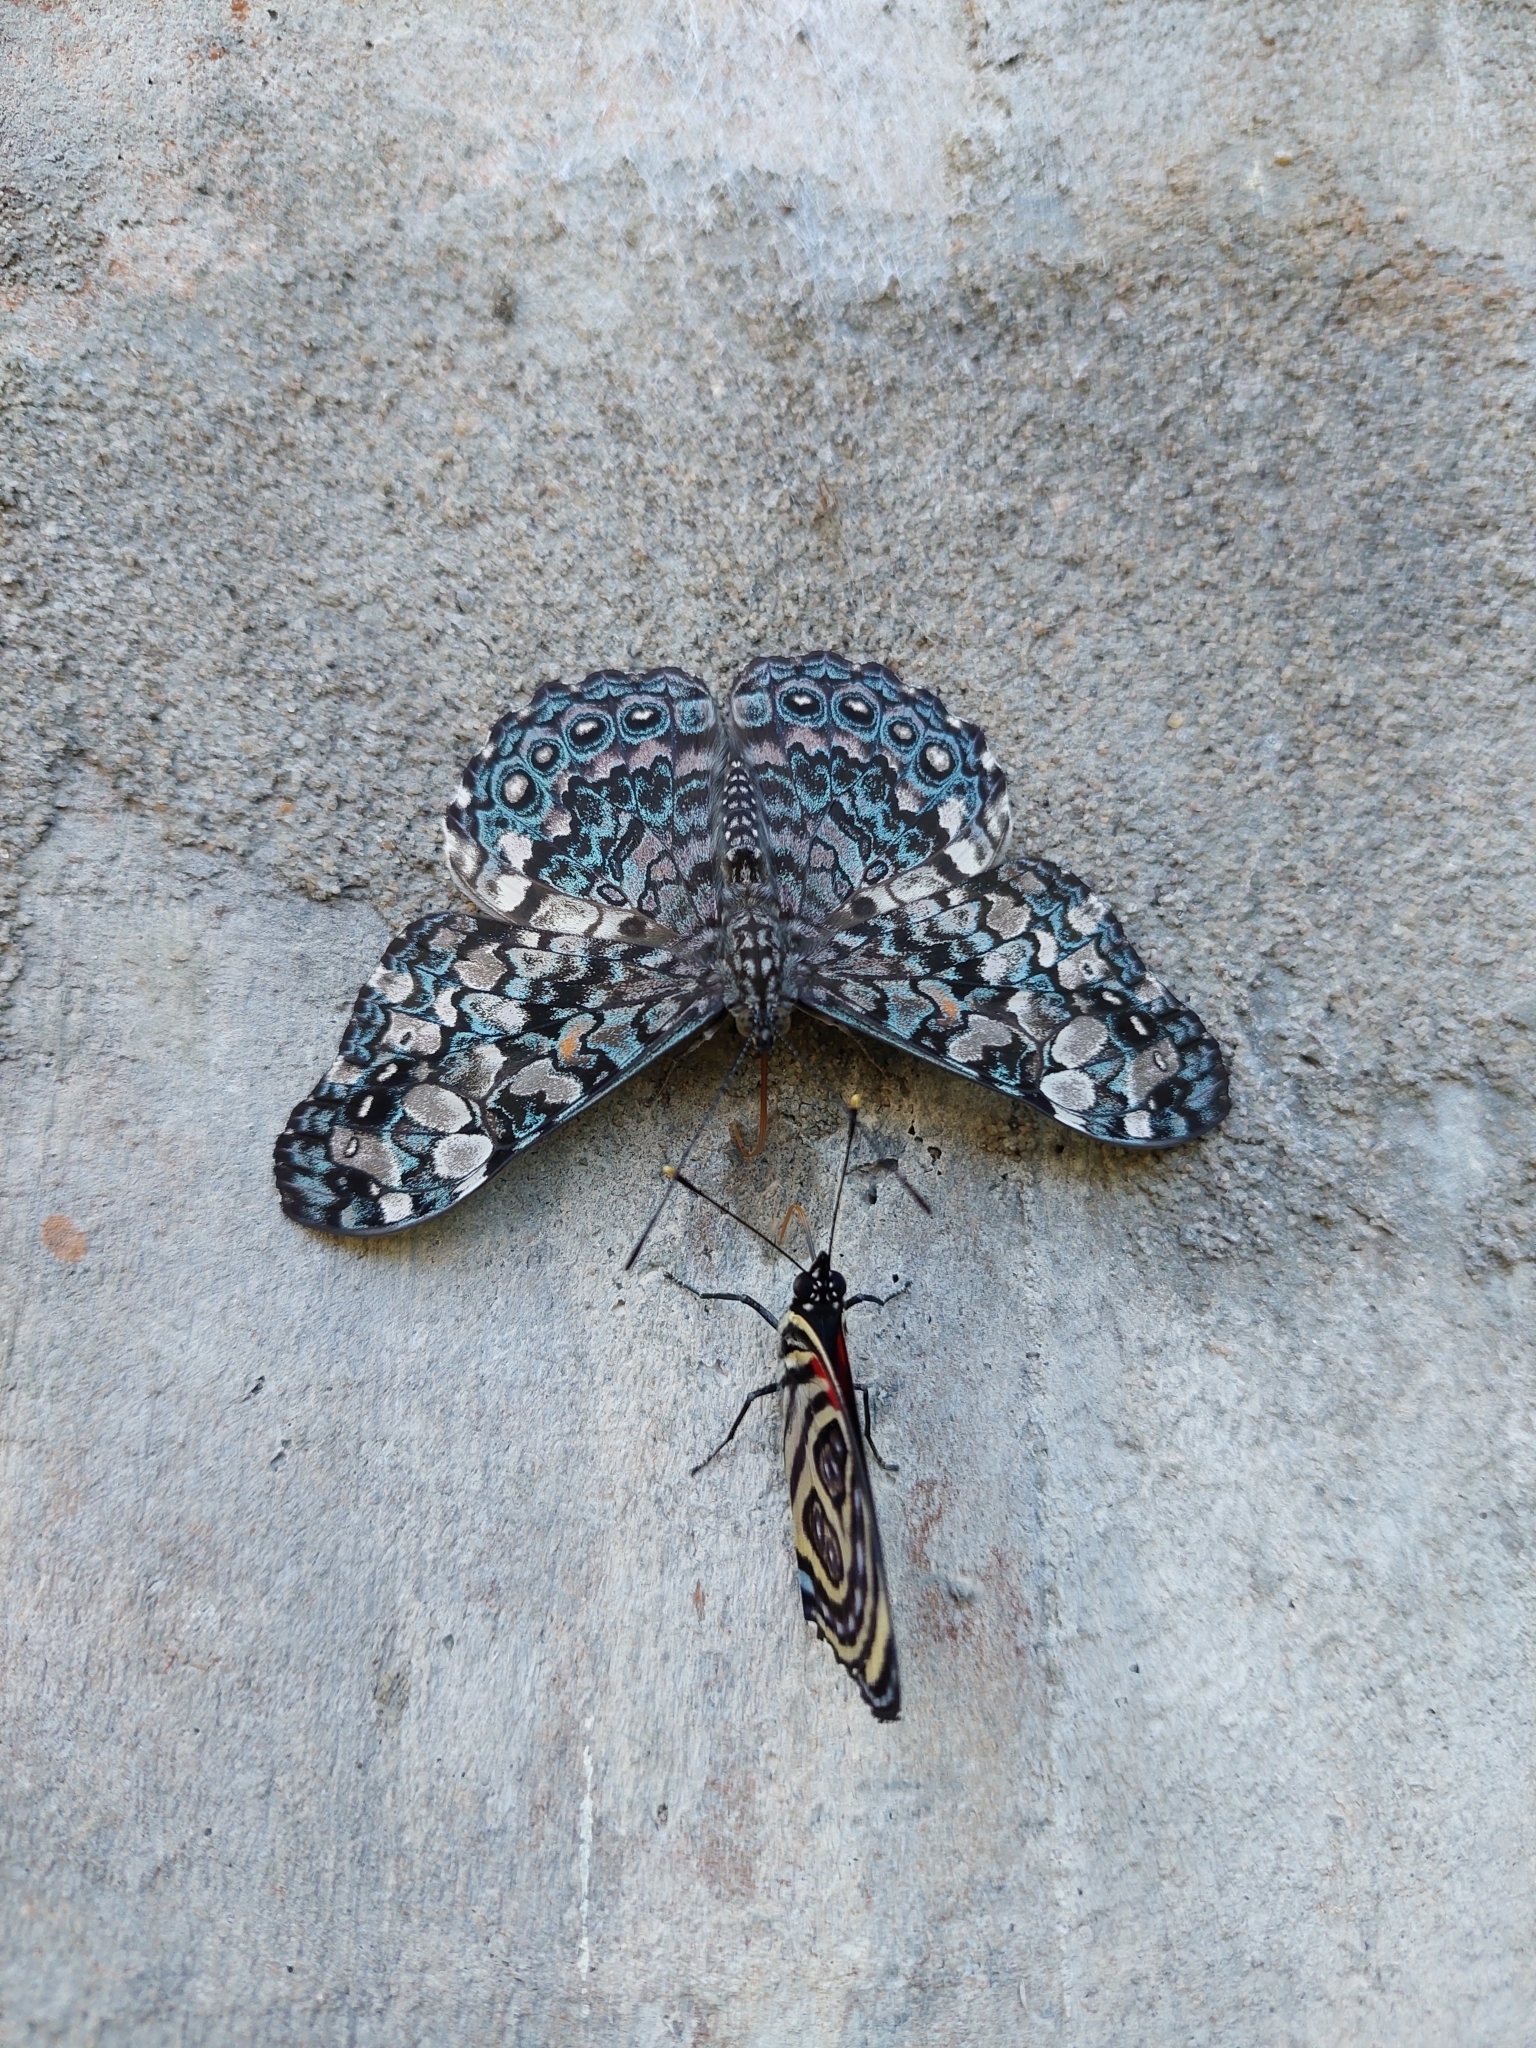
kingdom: Animalia
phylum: Arthropoda
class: Insecta
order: Lepidoptera
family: Nymphalidae
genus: Hamadryas
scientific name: Hamadryas epinome
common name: Epinome cracker
